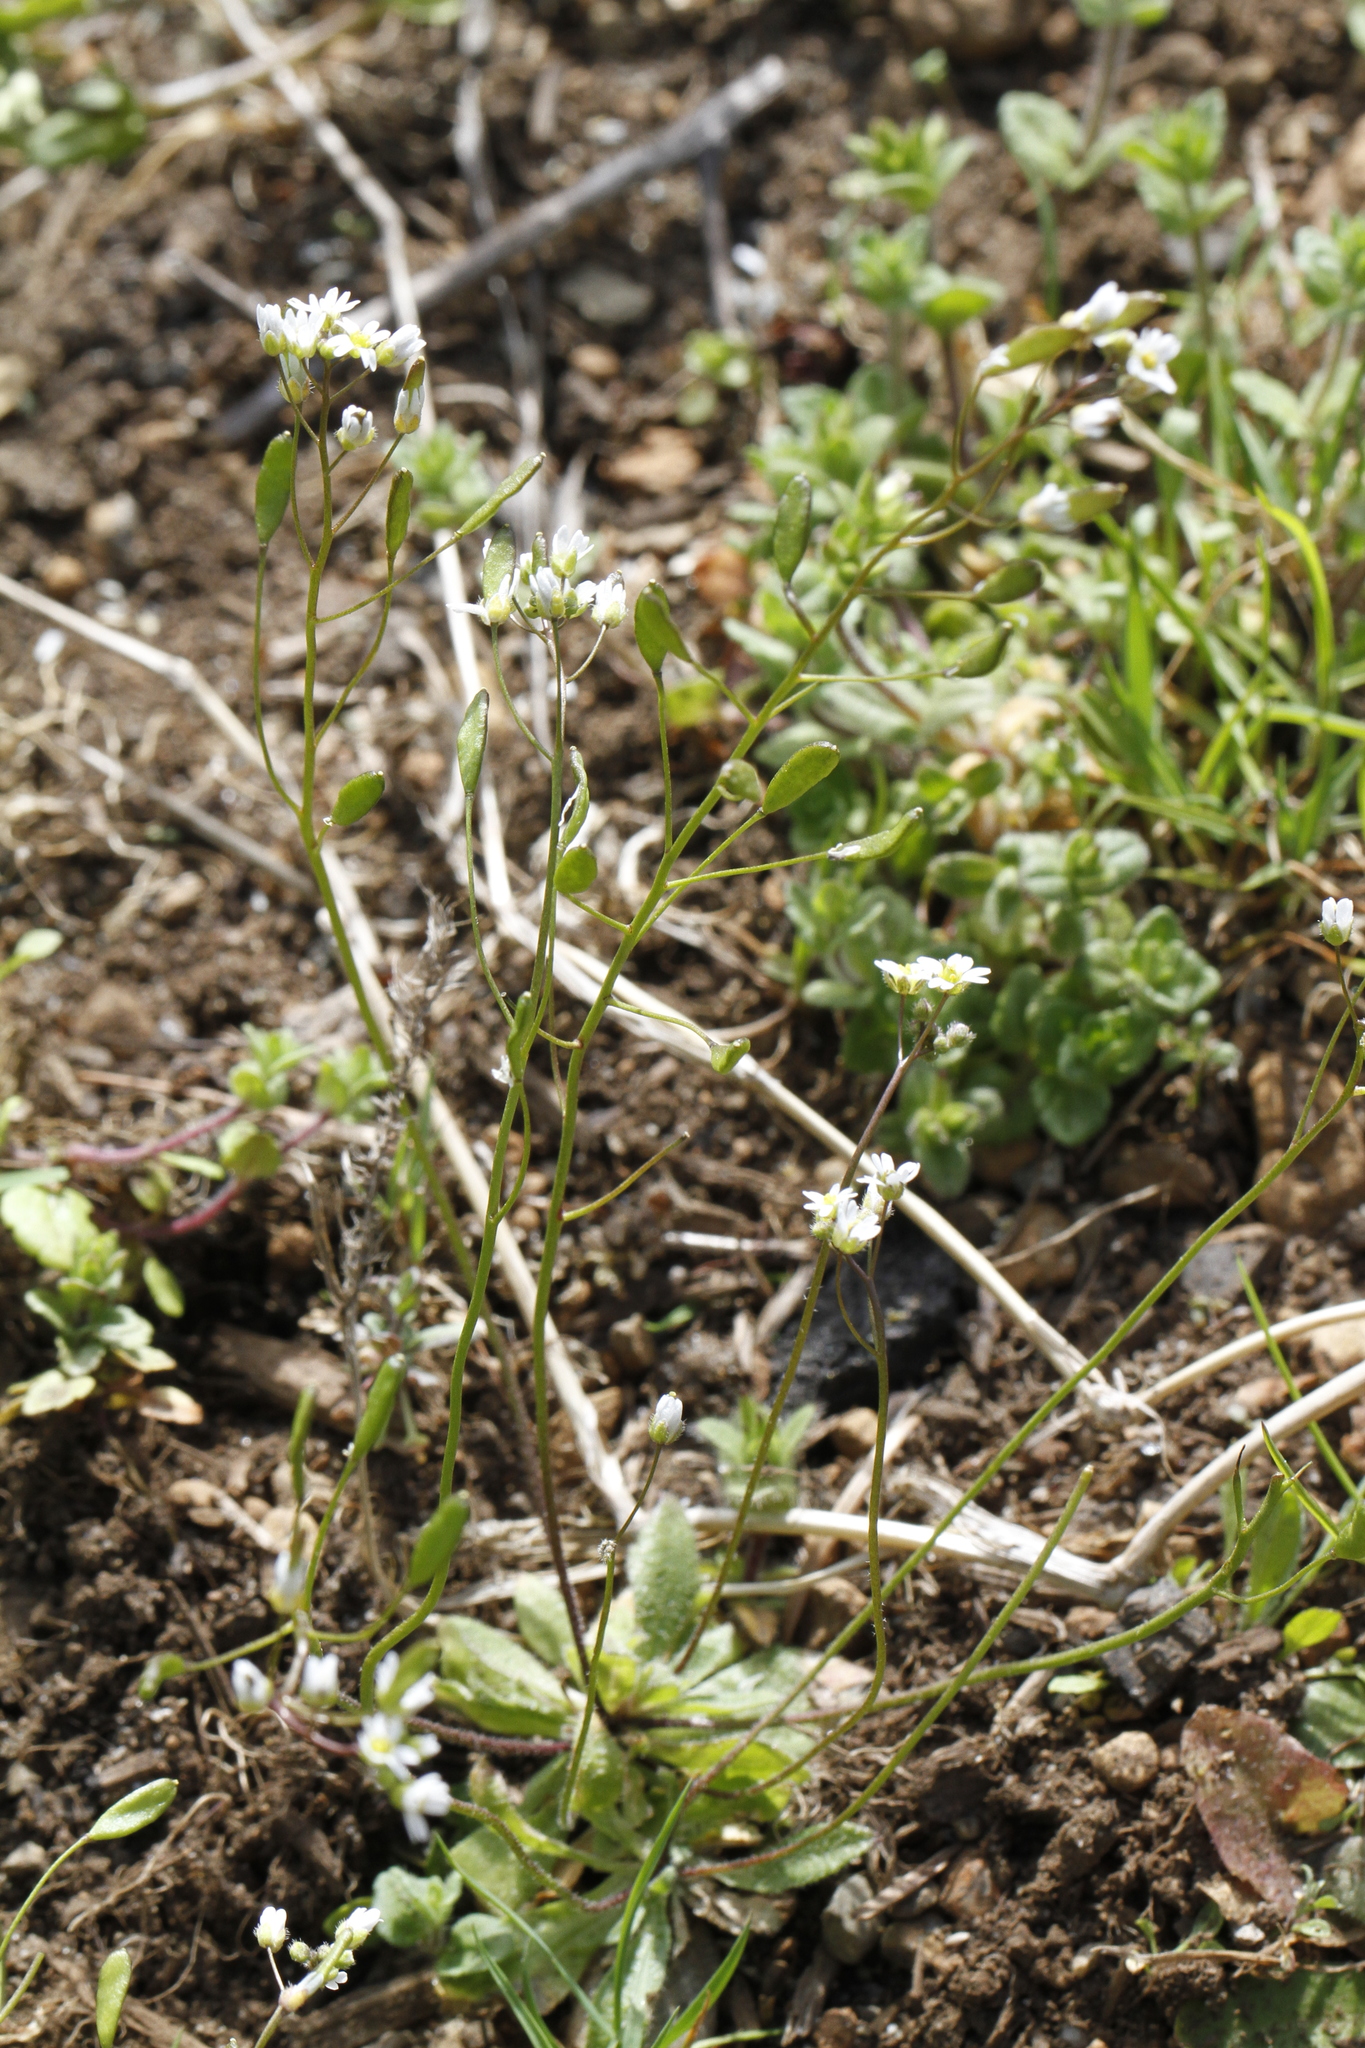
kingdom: Plantae
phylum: Tracheophyta
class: Magnoliopsida
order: Brassicales
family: Brassicaceae
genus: Draba
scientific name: Draba verna
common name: Spring draba
